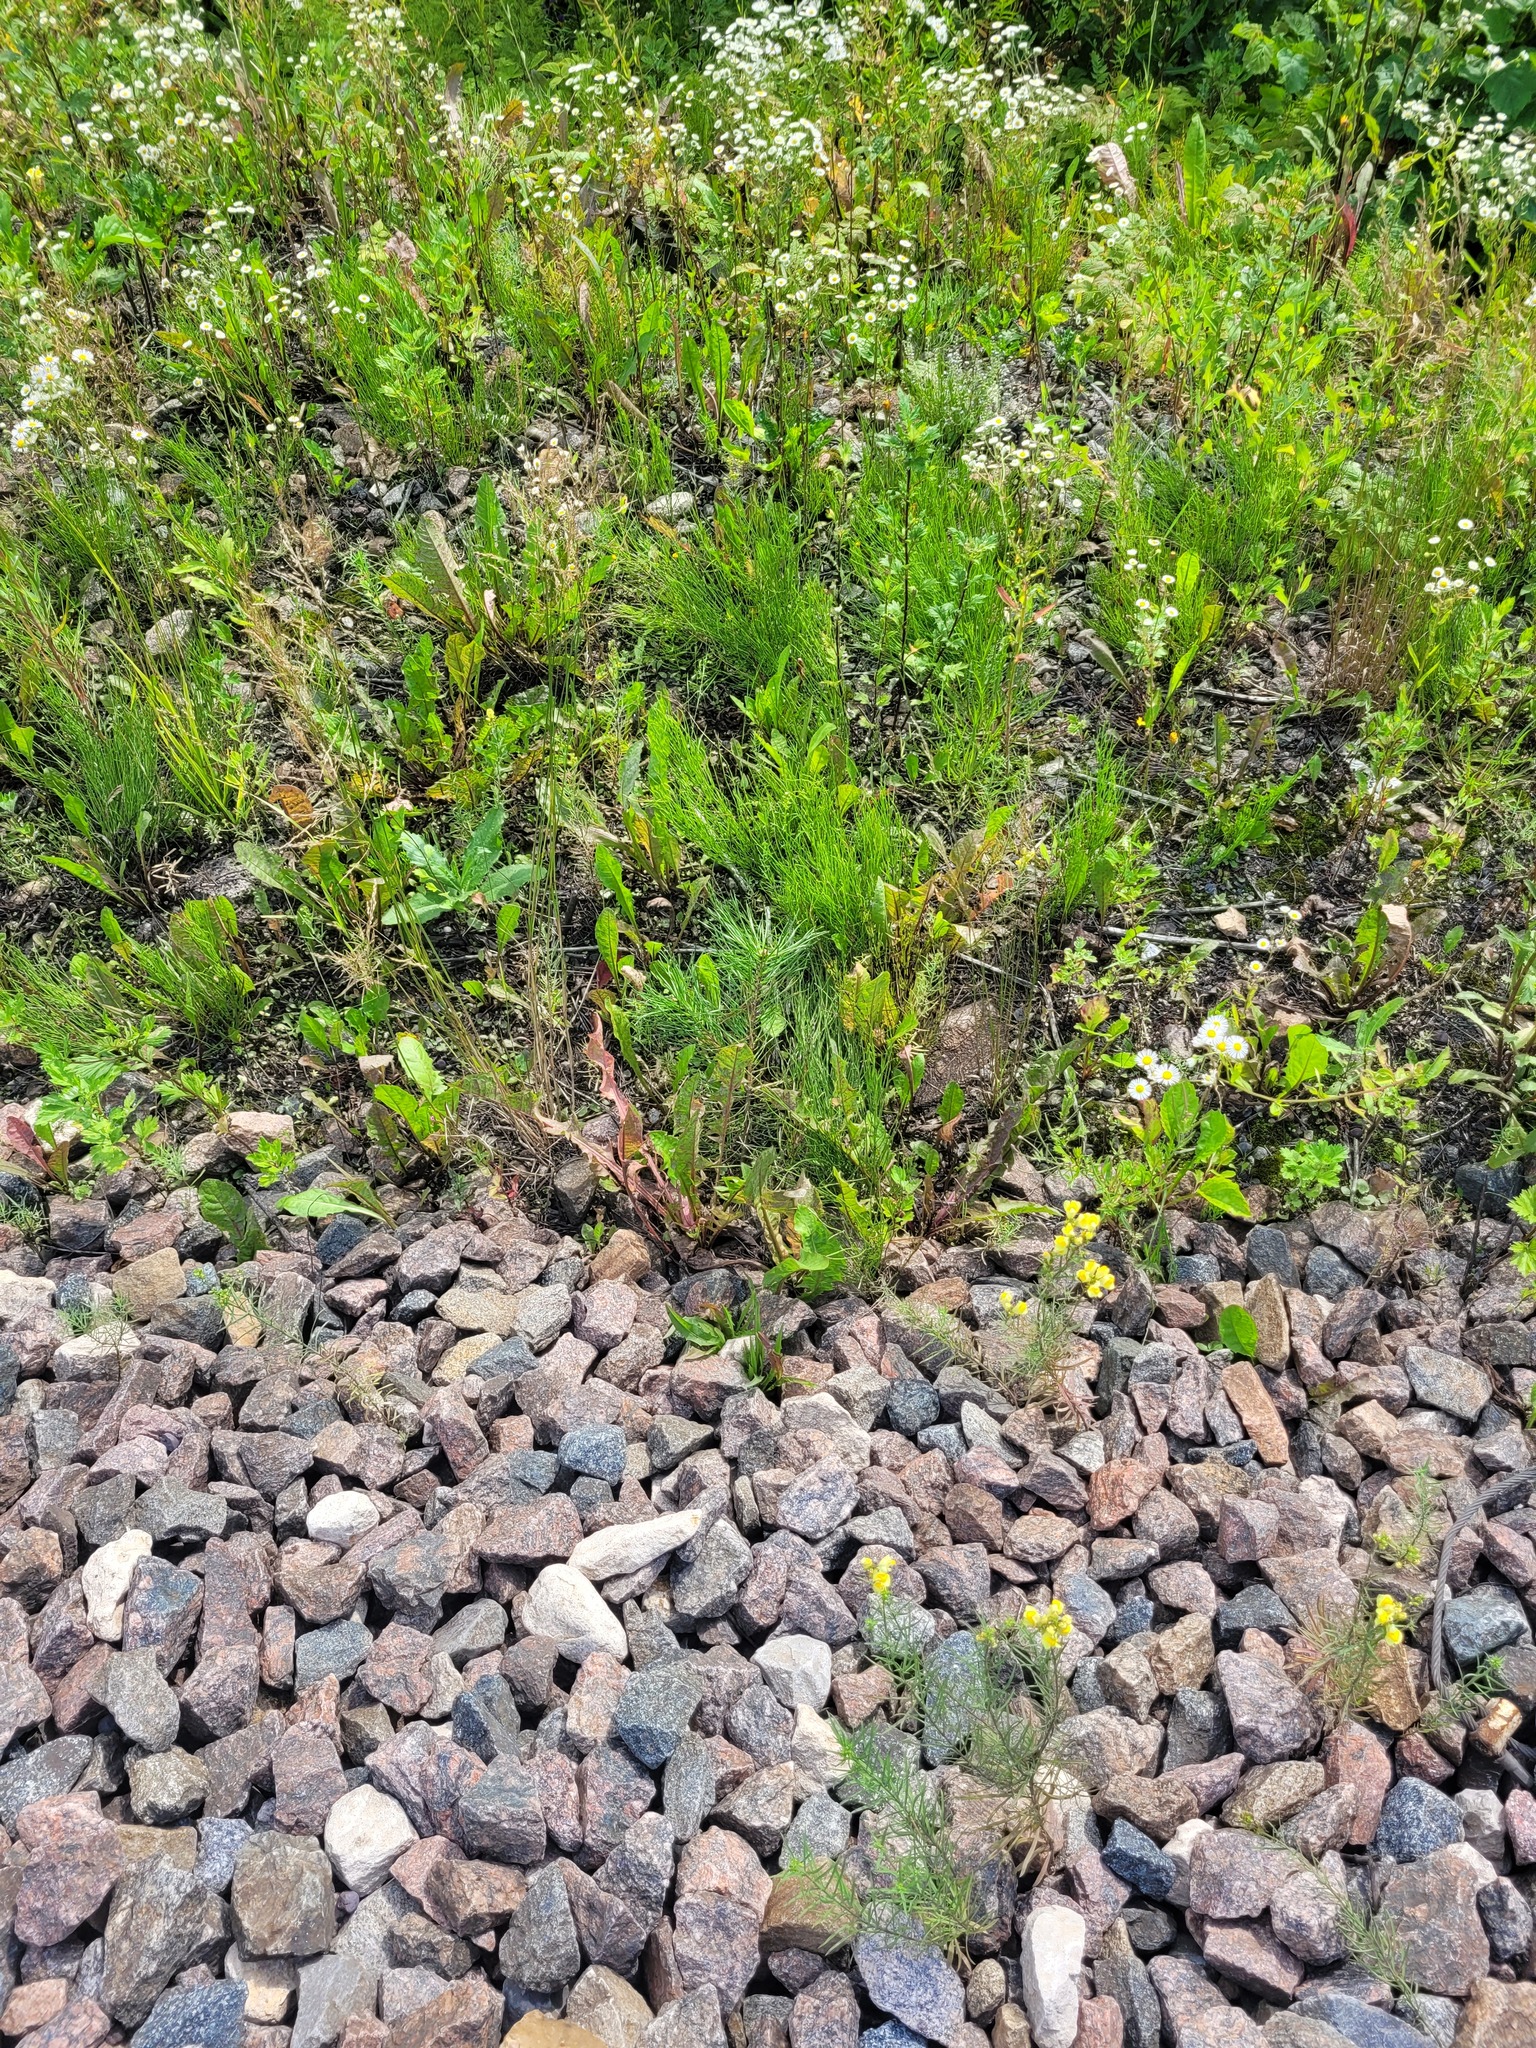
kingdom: Plantae
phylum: Tracheophyta
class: Pinopsida
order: Pinales
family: Pinaceae
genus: Pinus
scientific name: Pinus sylvestris
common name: Scots pine
